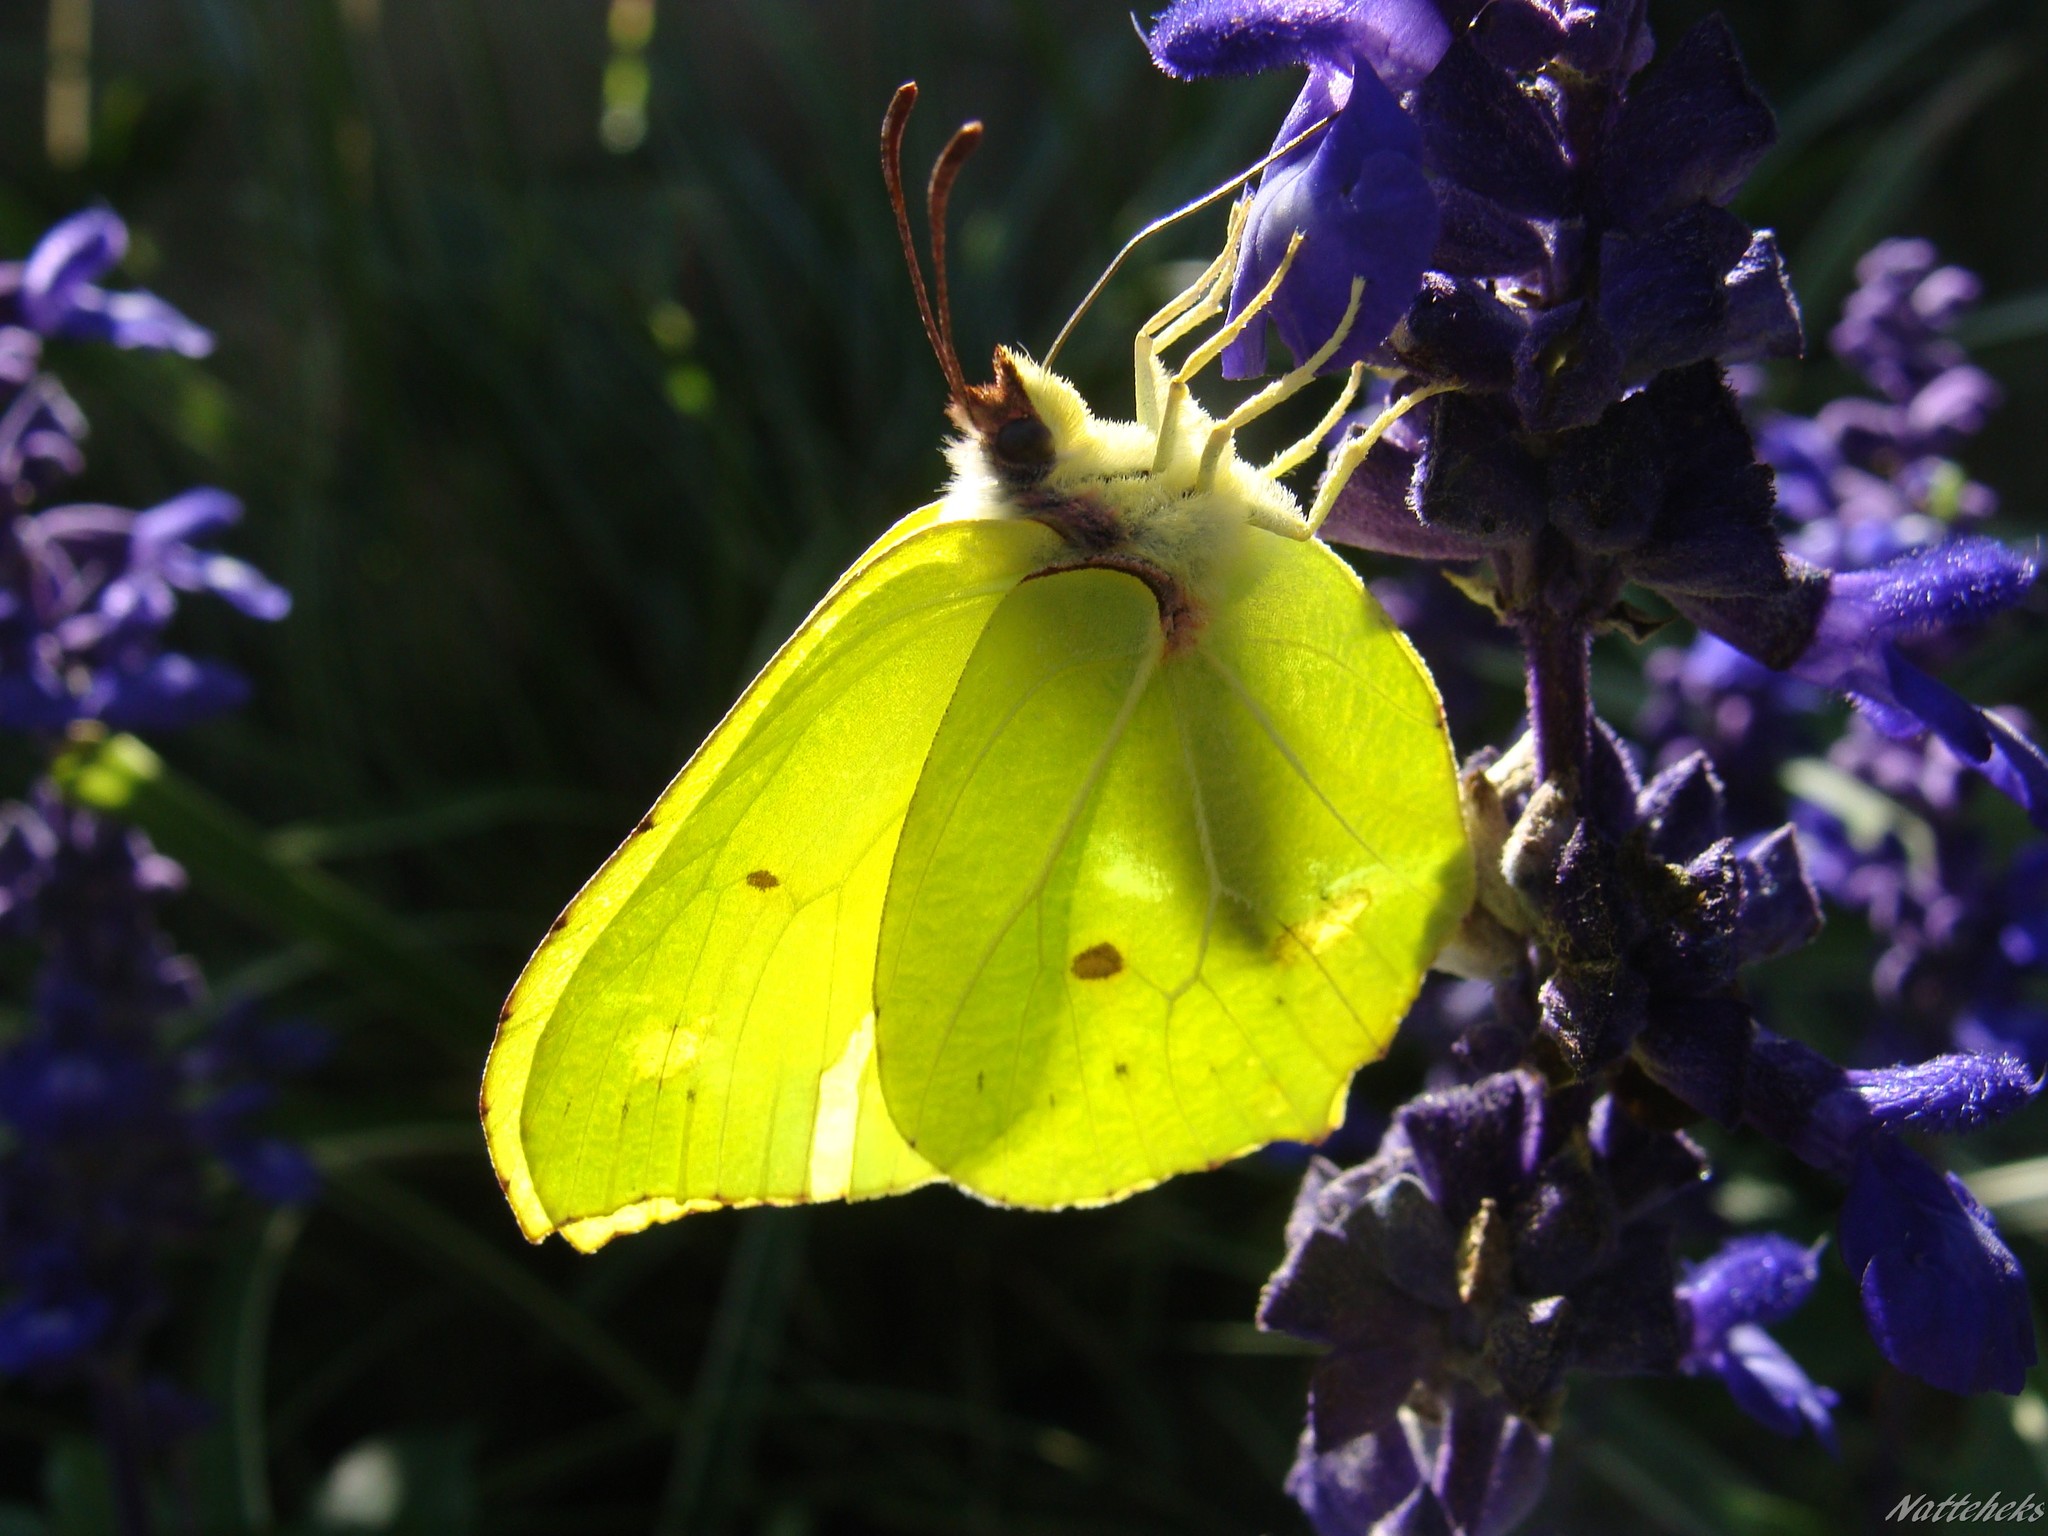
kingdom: Animalia
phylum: Arthropoda
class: Insecta
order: Lepidoptera
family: Pieridae
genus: Gonepteryx
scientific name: Gonepteryx rhamni
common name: Brimstone
